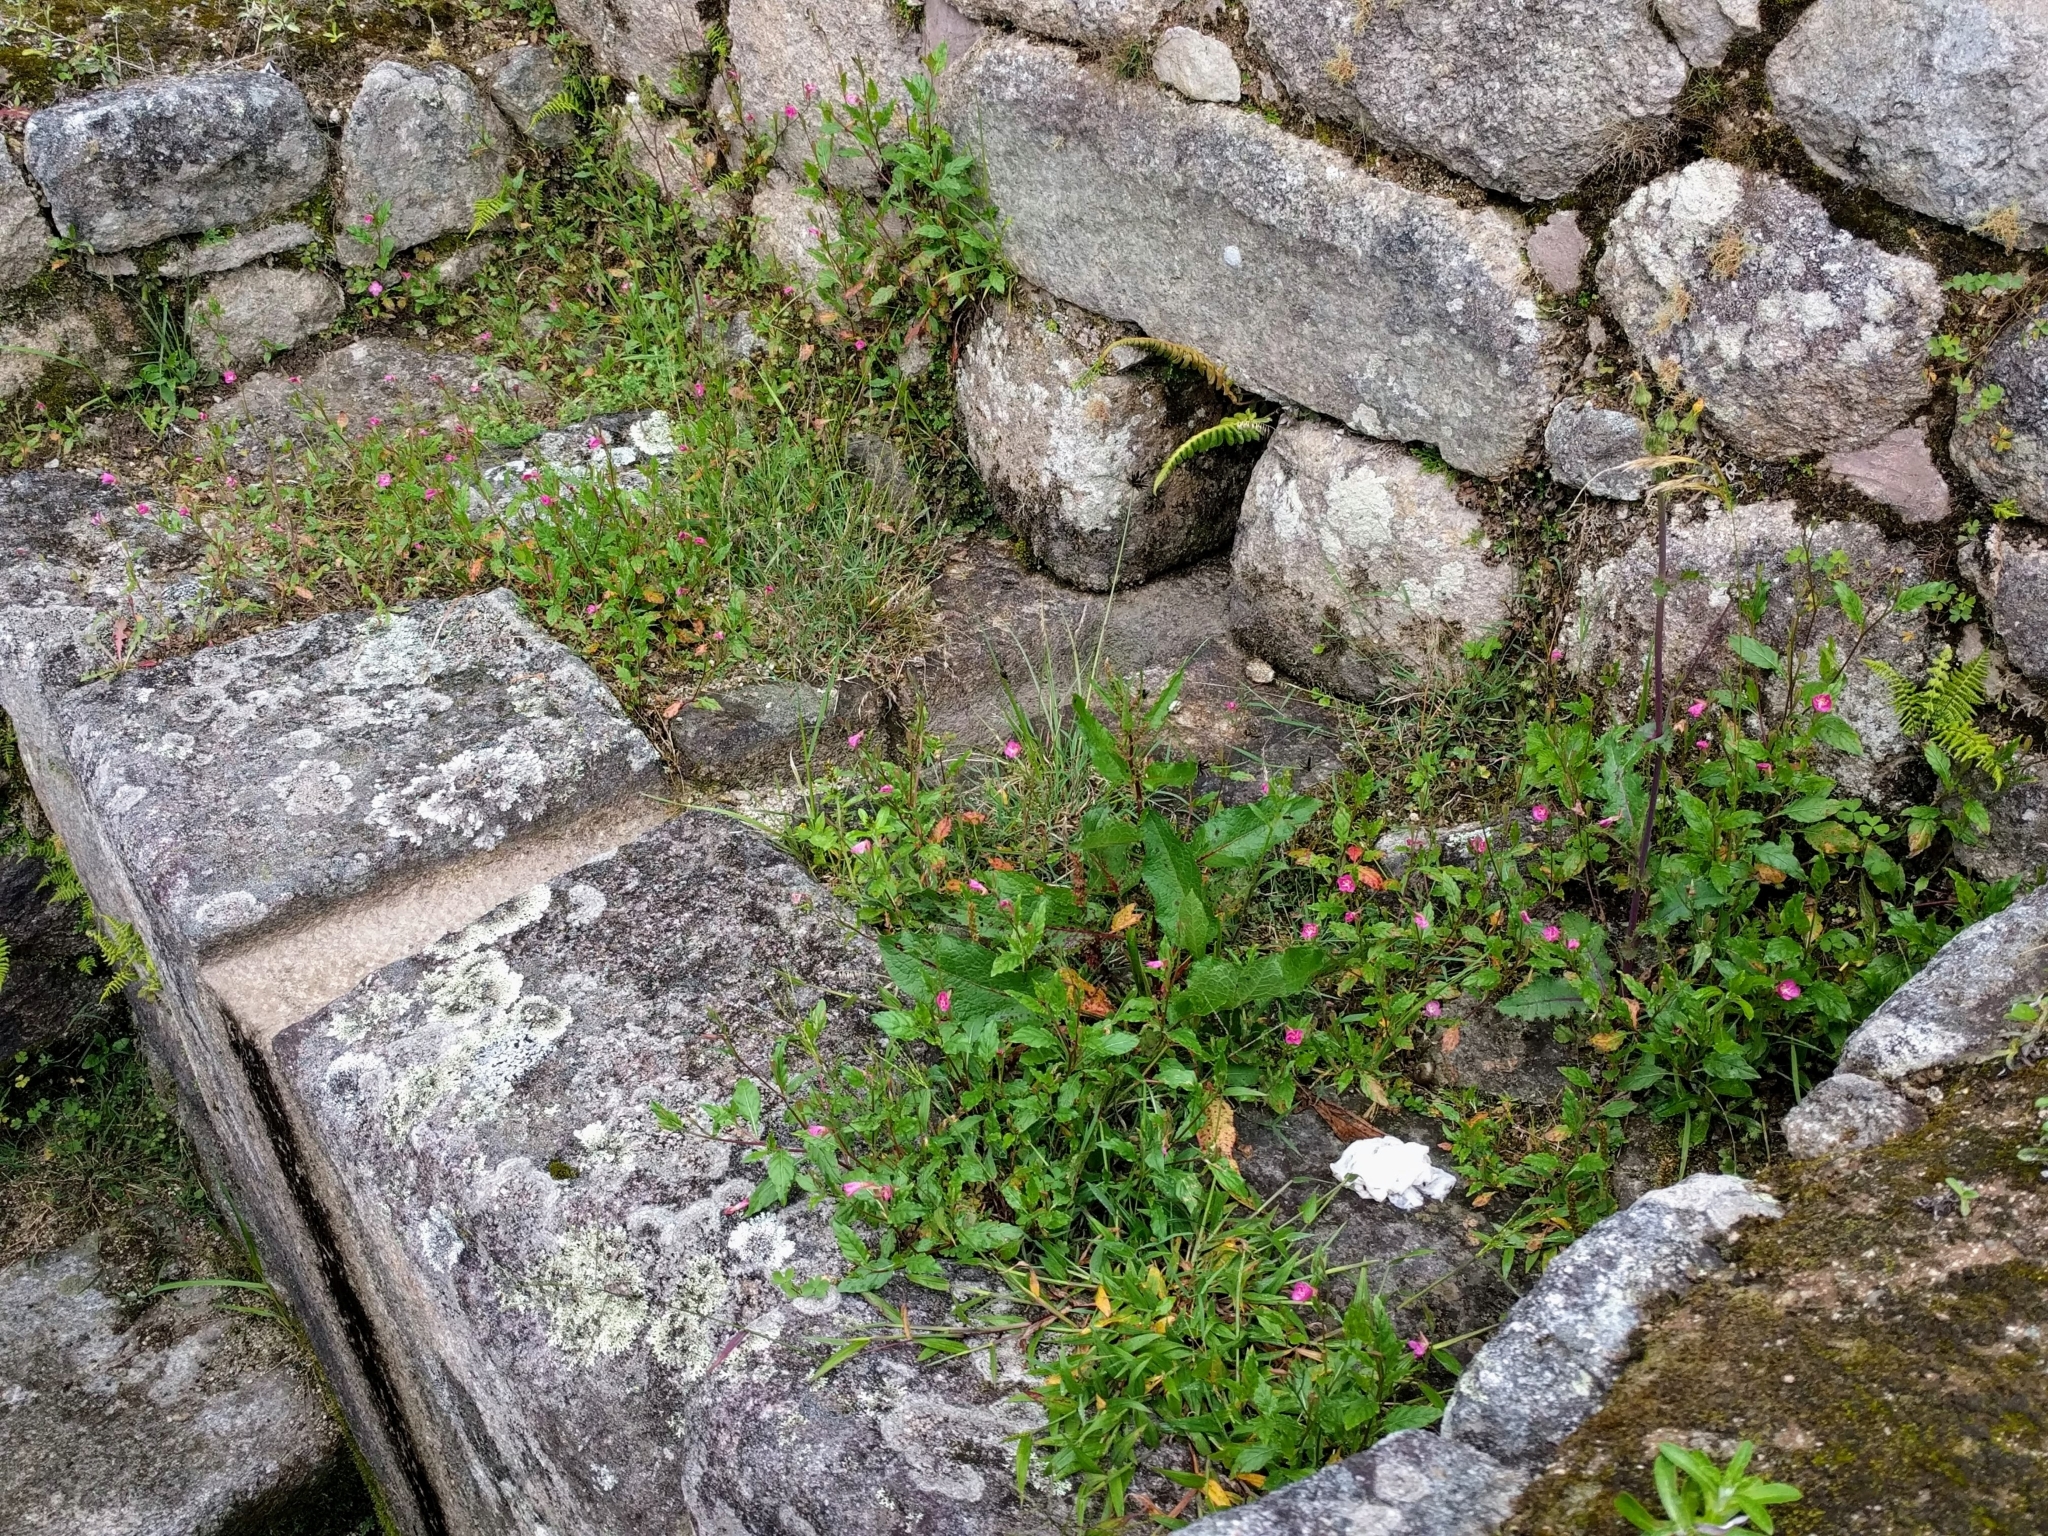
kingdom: Plantae
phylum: Tracheophyta
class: Magnoliopsida
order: Myrtales
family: Onagraceae
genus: Oenothera
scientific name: Oenothera rosea
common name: Rosy evening-primrose
